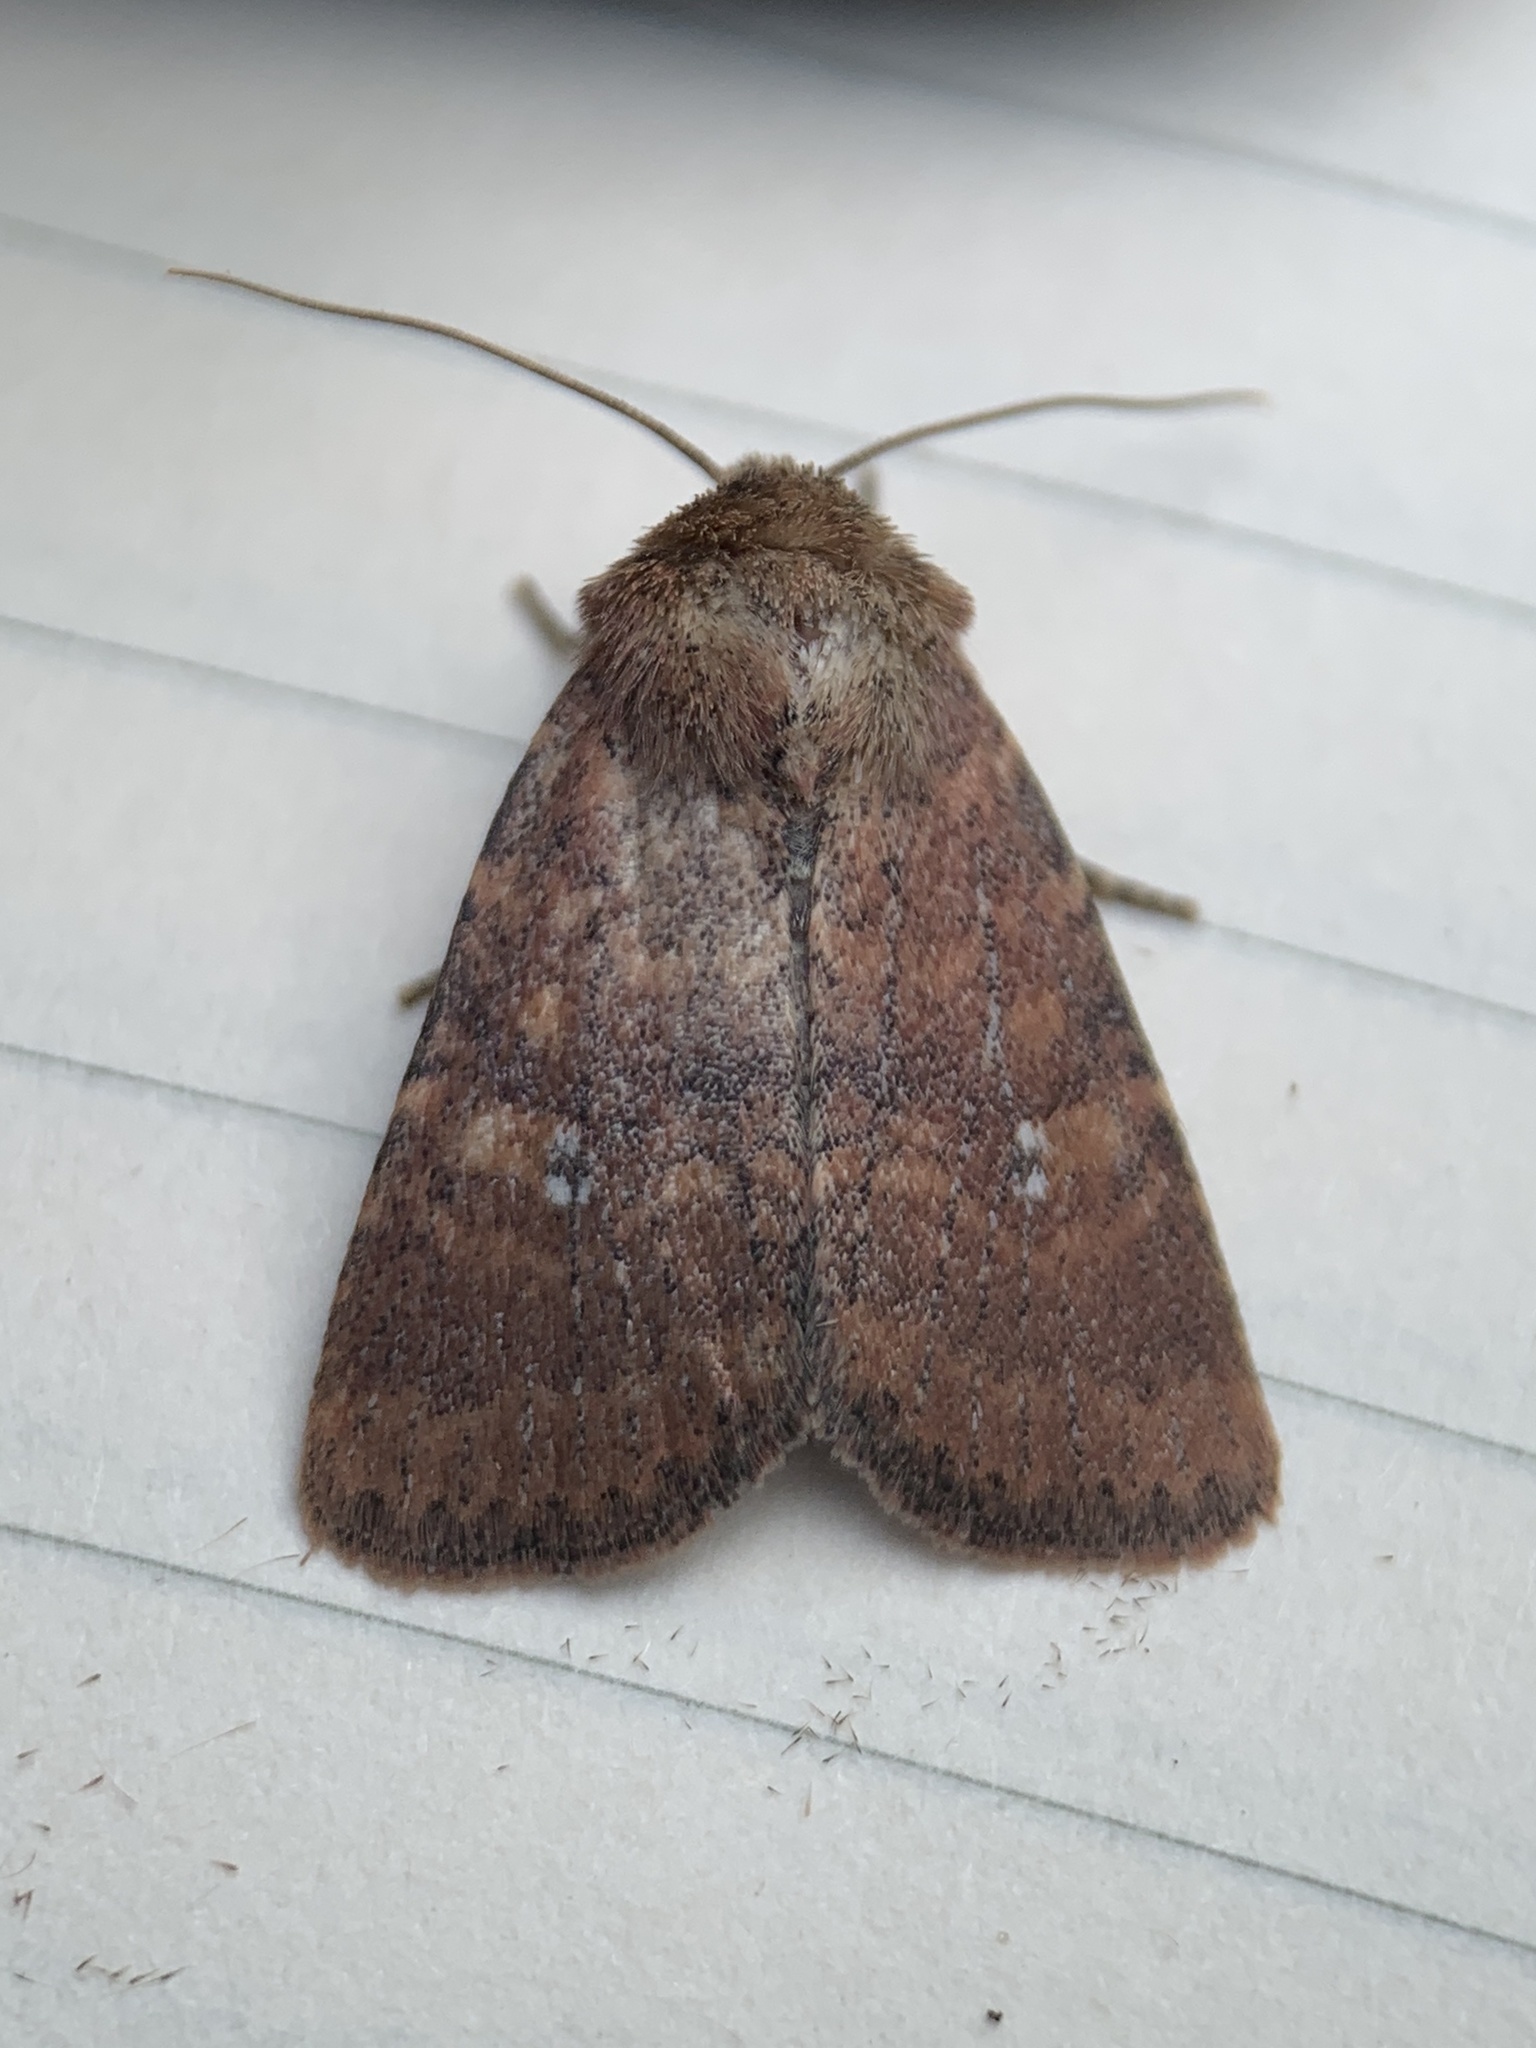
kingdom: Animalia
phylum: Arthropoda
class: Insecta
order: Lepidoptera
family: Noctuidae
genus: Homorthodes
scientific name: Homorthodes lindseyi
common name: Southern scurfy quaker
